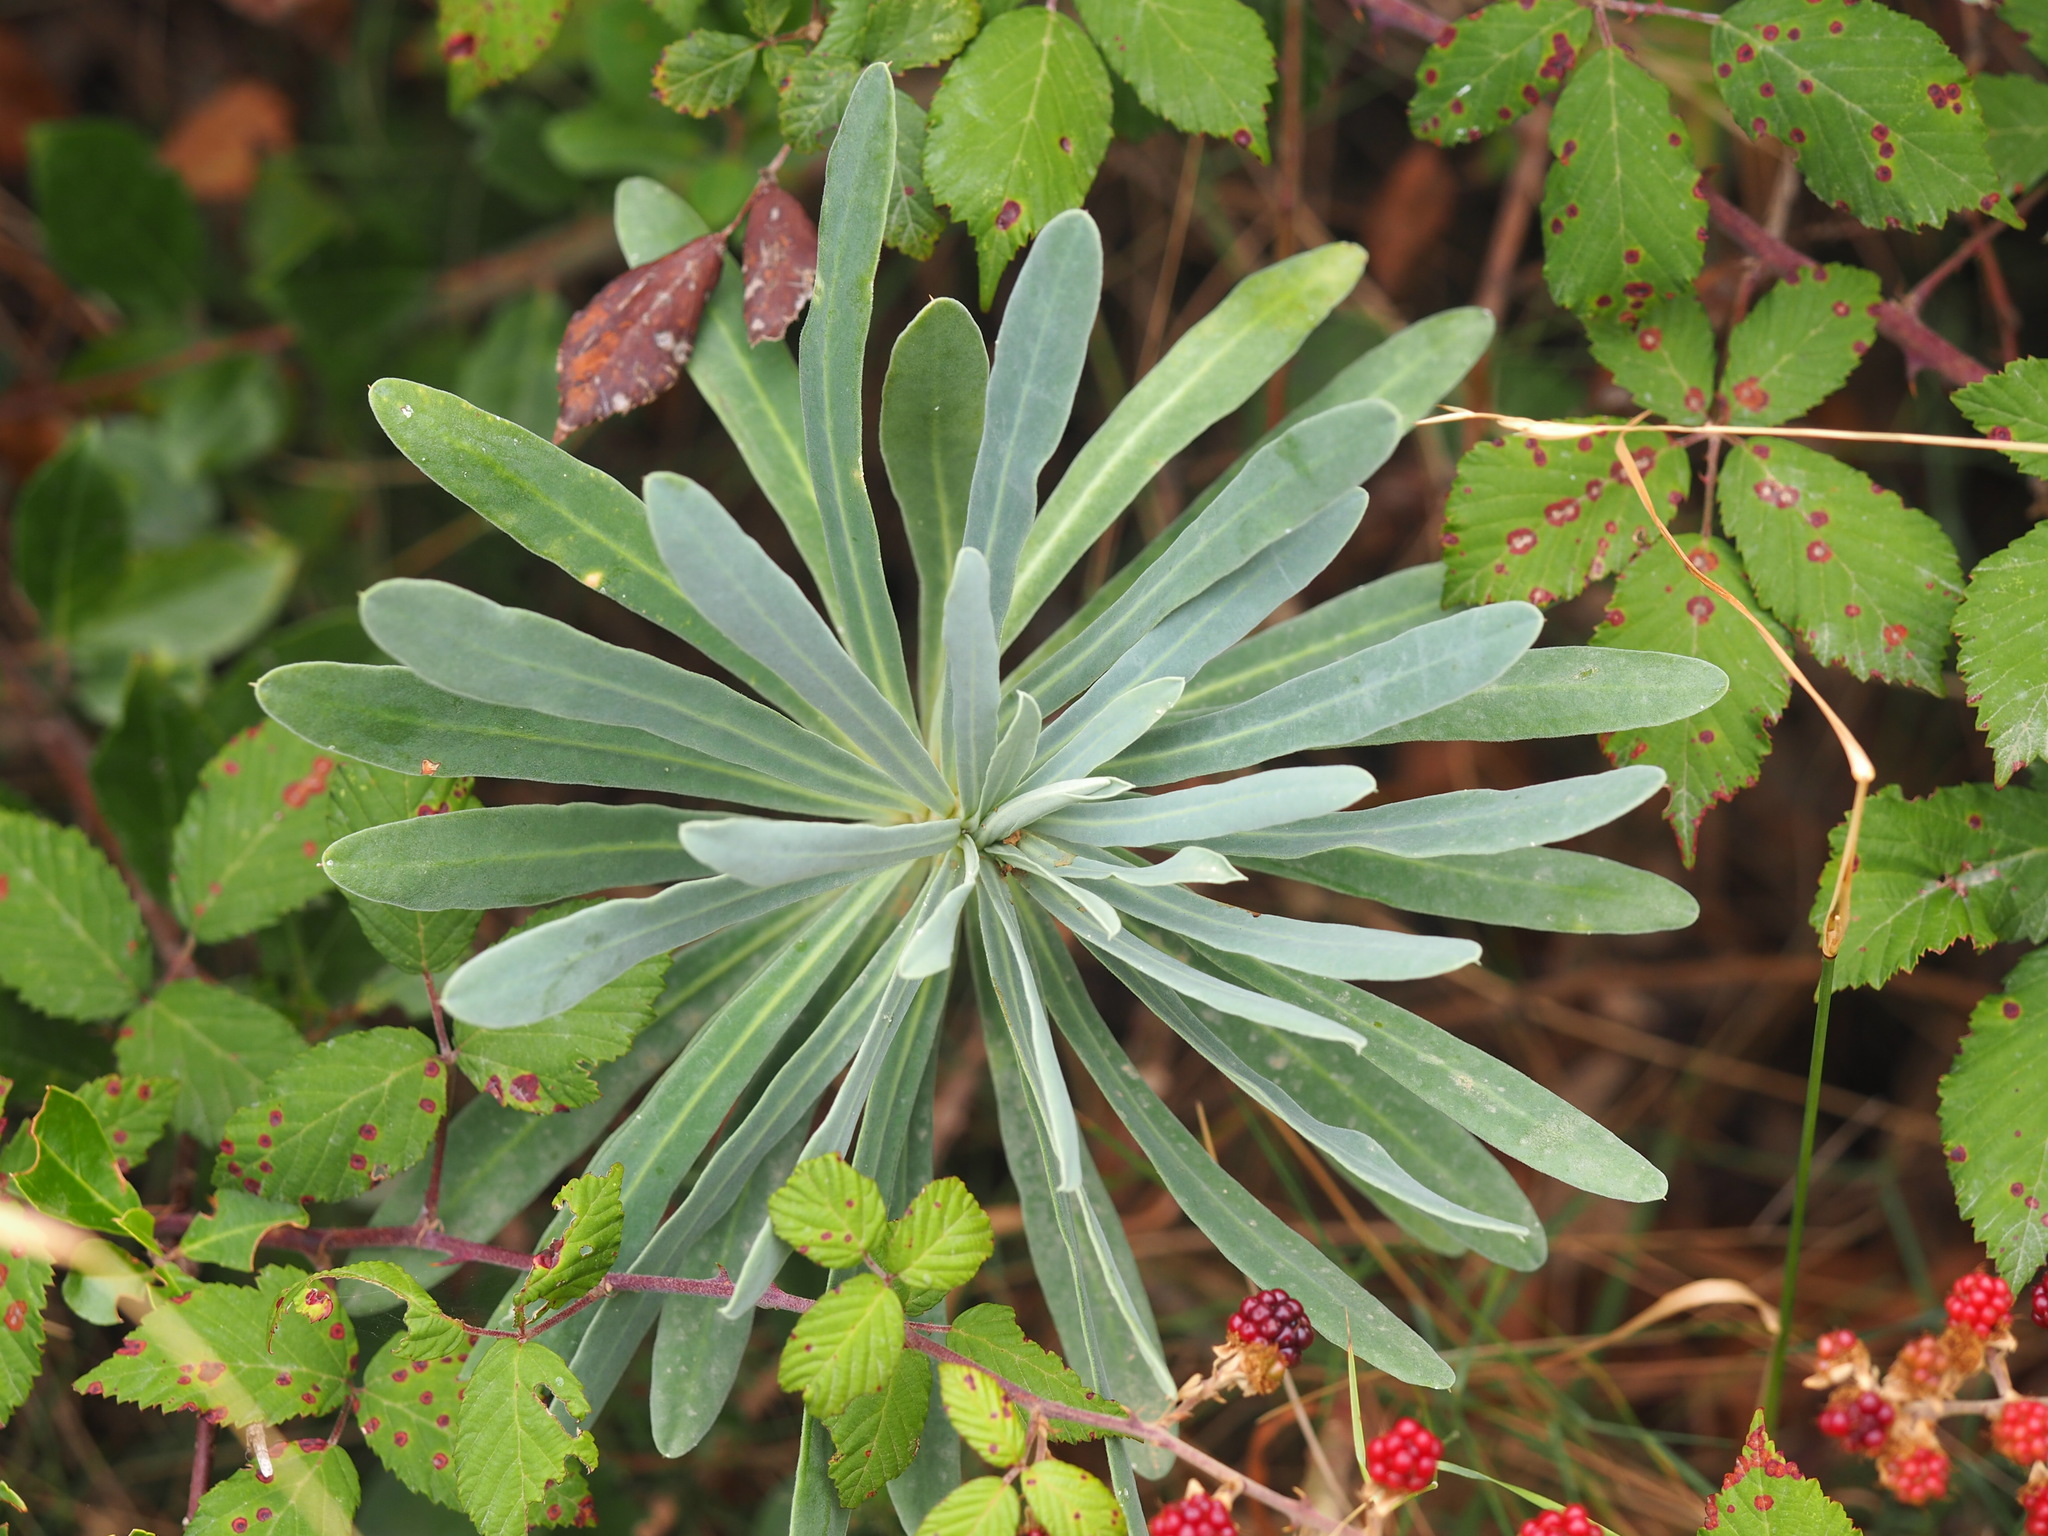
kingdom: Plantae
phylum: Tracheophyta
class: Magnoliopsida
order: Malpighiales
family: Euphorbiaceae
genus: Euphorbia
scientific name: Euphorbia characias
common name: Mediterranean spurge
